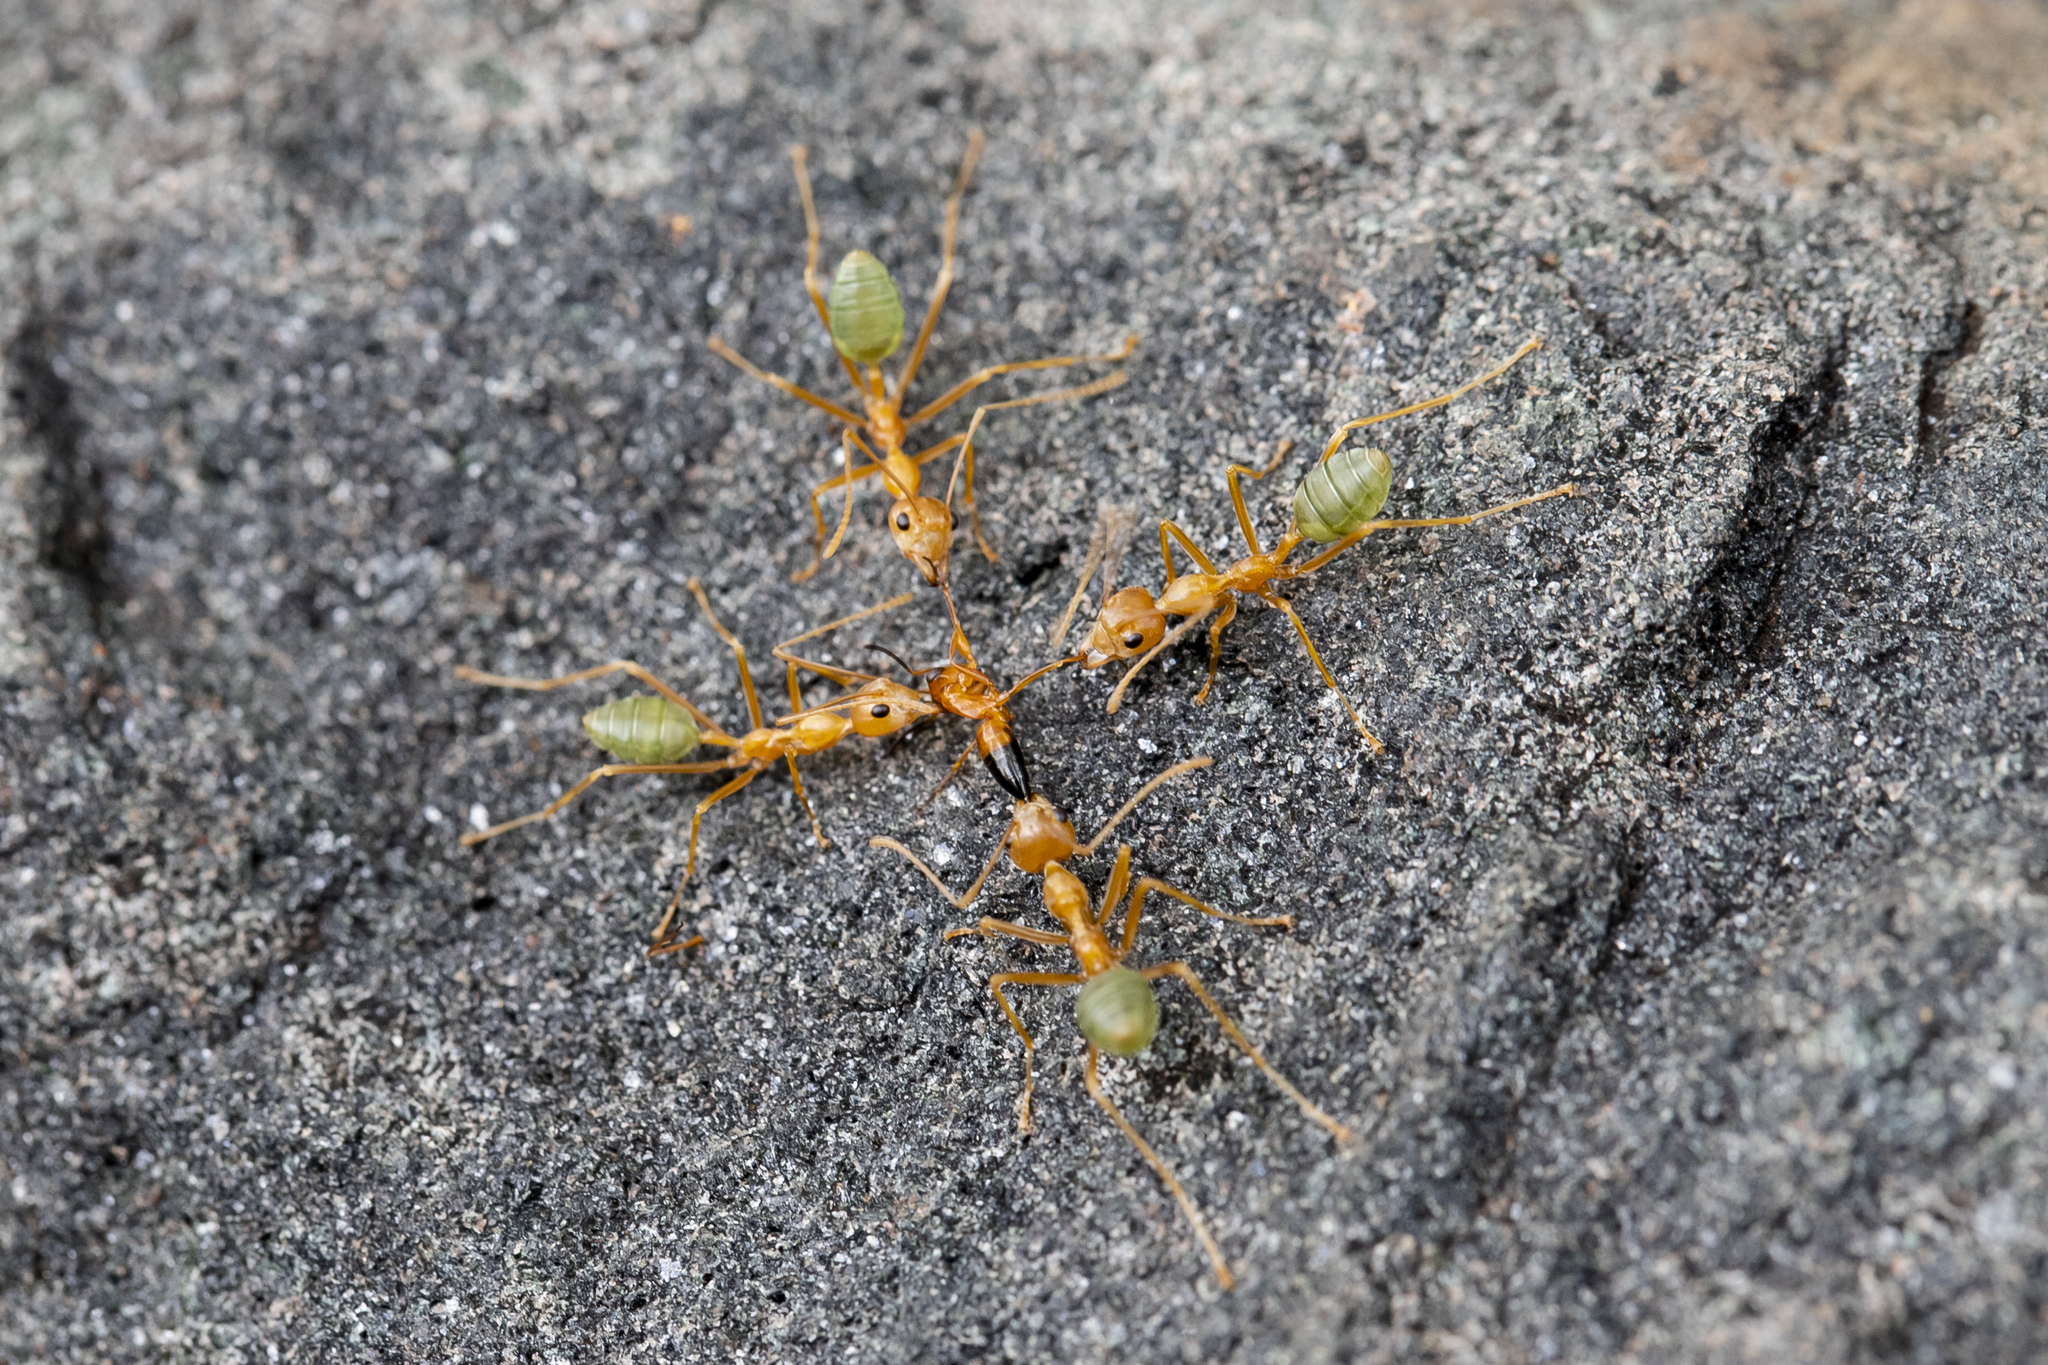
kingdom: Animalia
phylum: Arthropoda
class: Insecta
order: Hymenoptera
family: Formicidae
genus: Oecophylla
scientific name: Oecophylla smaragdina
